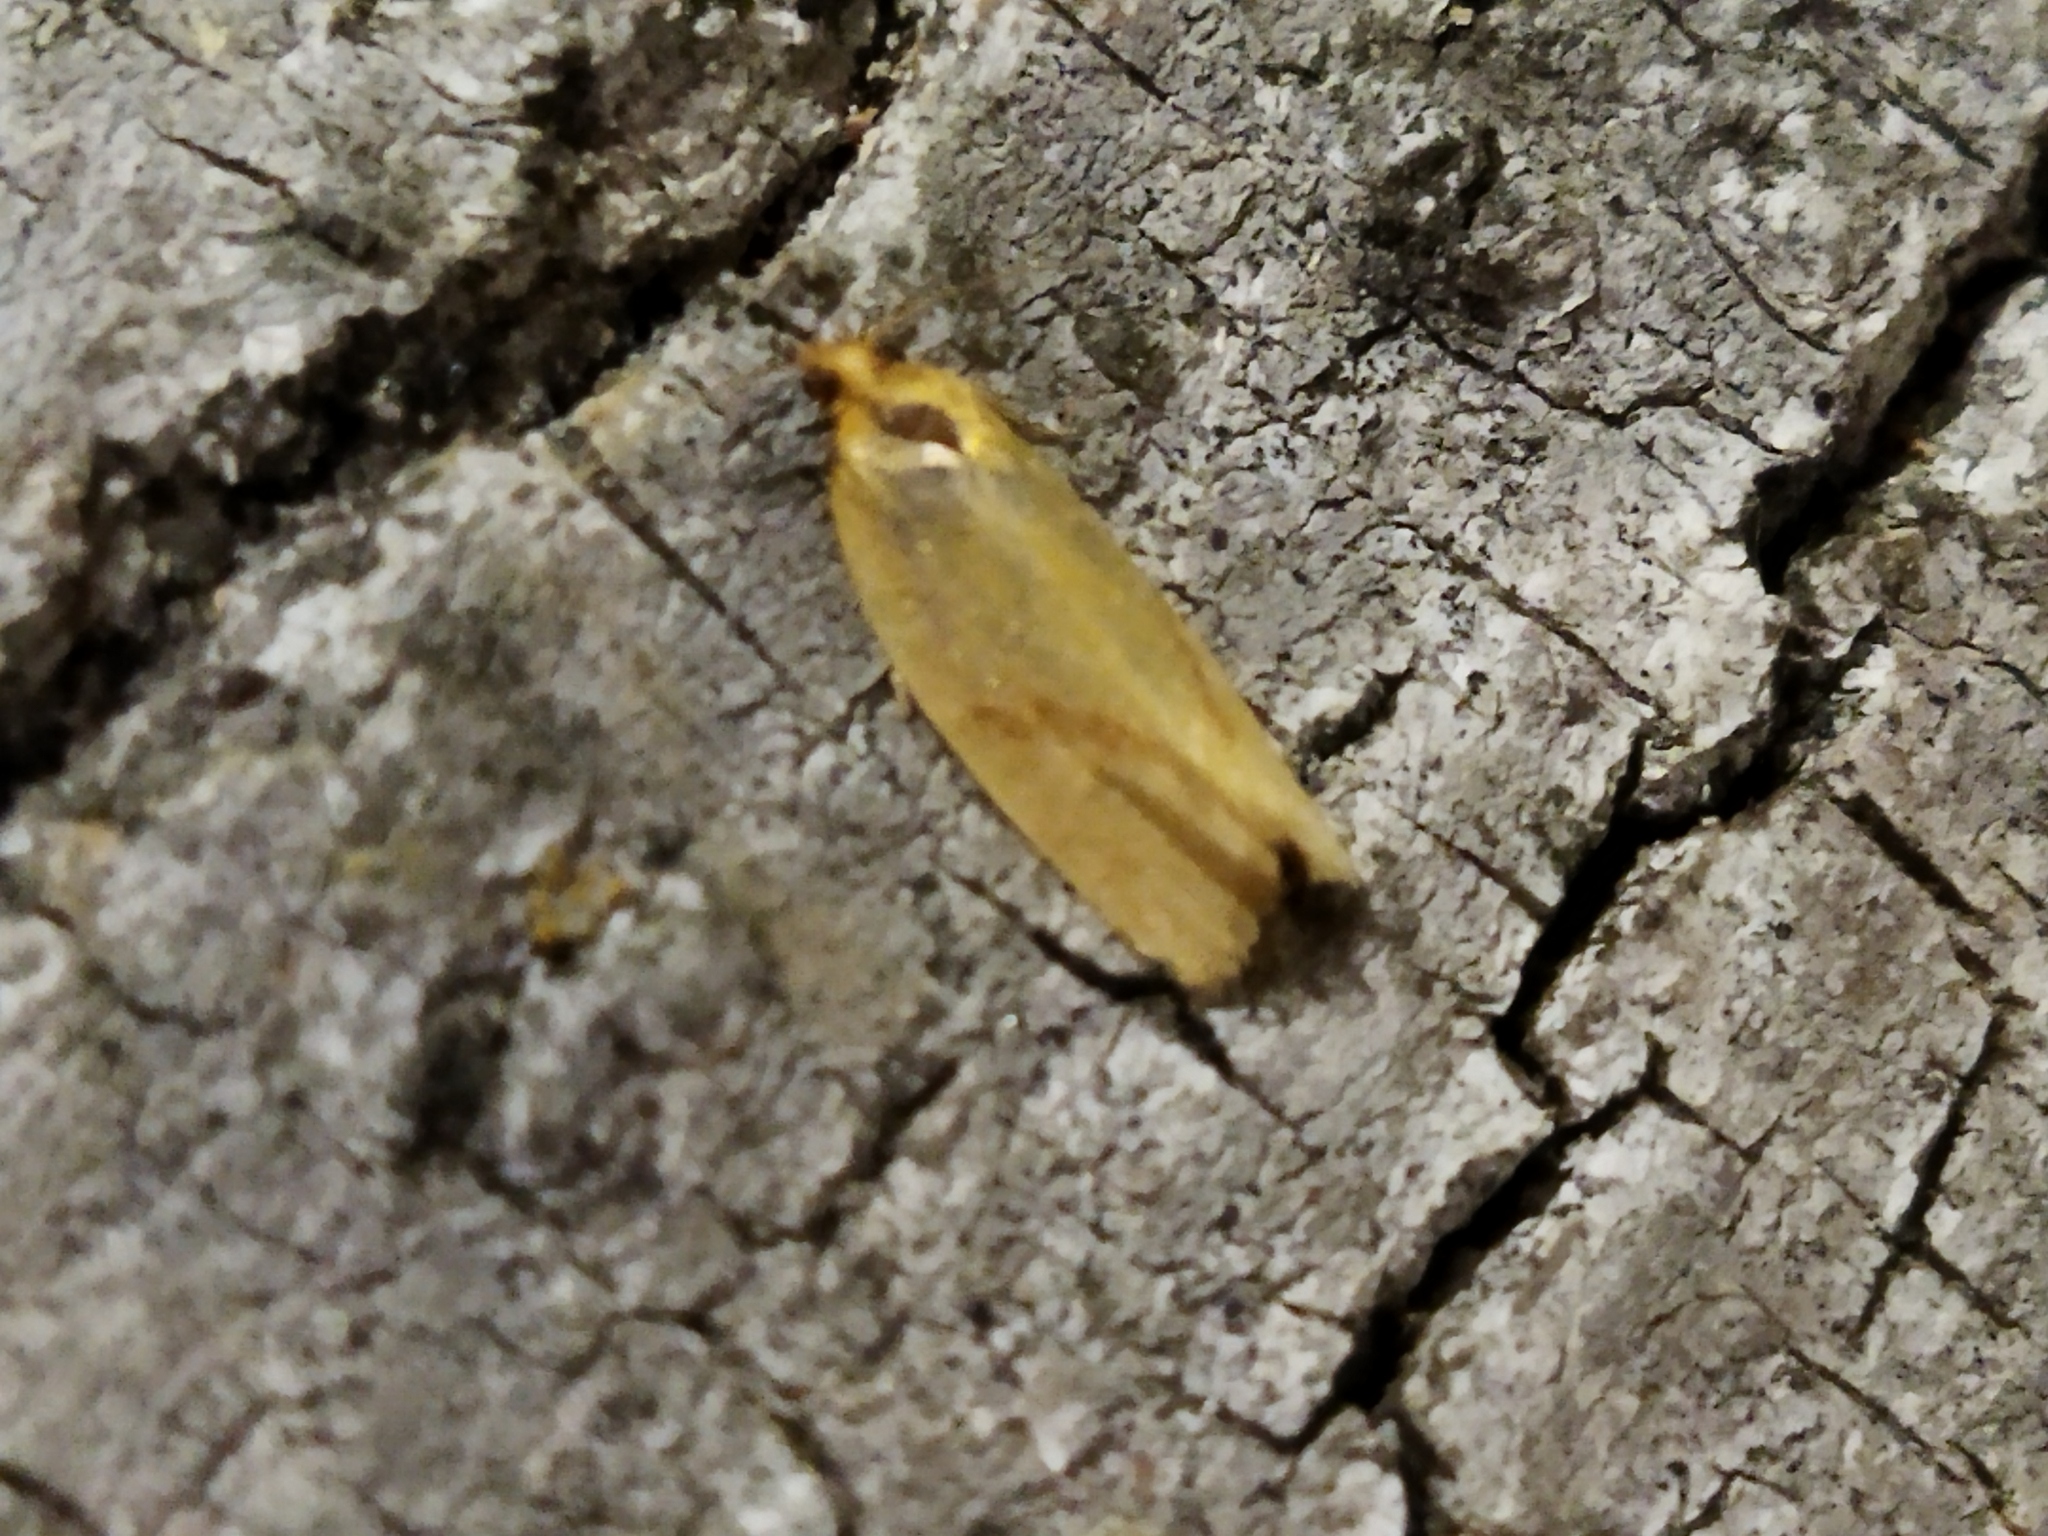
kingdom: Animalia
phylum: Arthropoda
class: Insecta
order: Lepidoptera
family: Tortricidae
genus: Clepsis
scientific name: Clepsis pallidana
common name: Sheep's-bit conch
